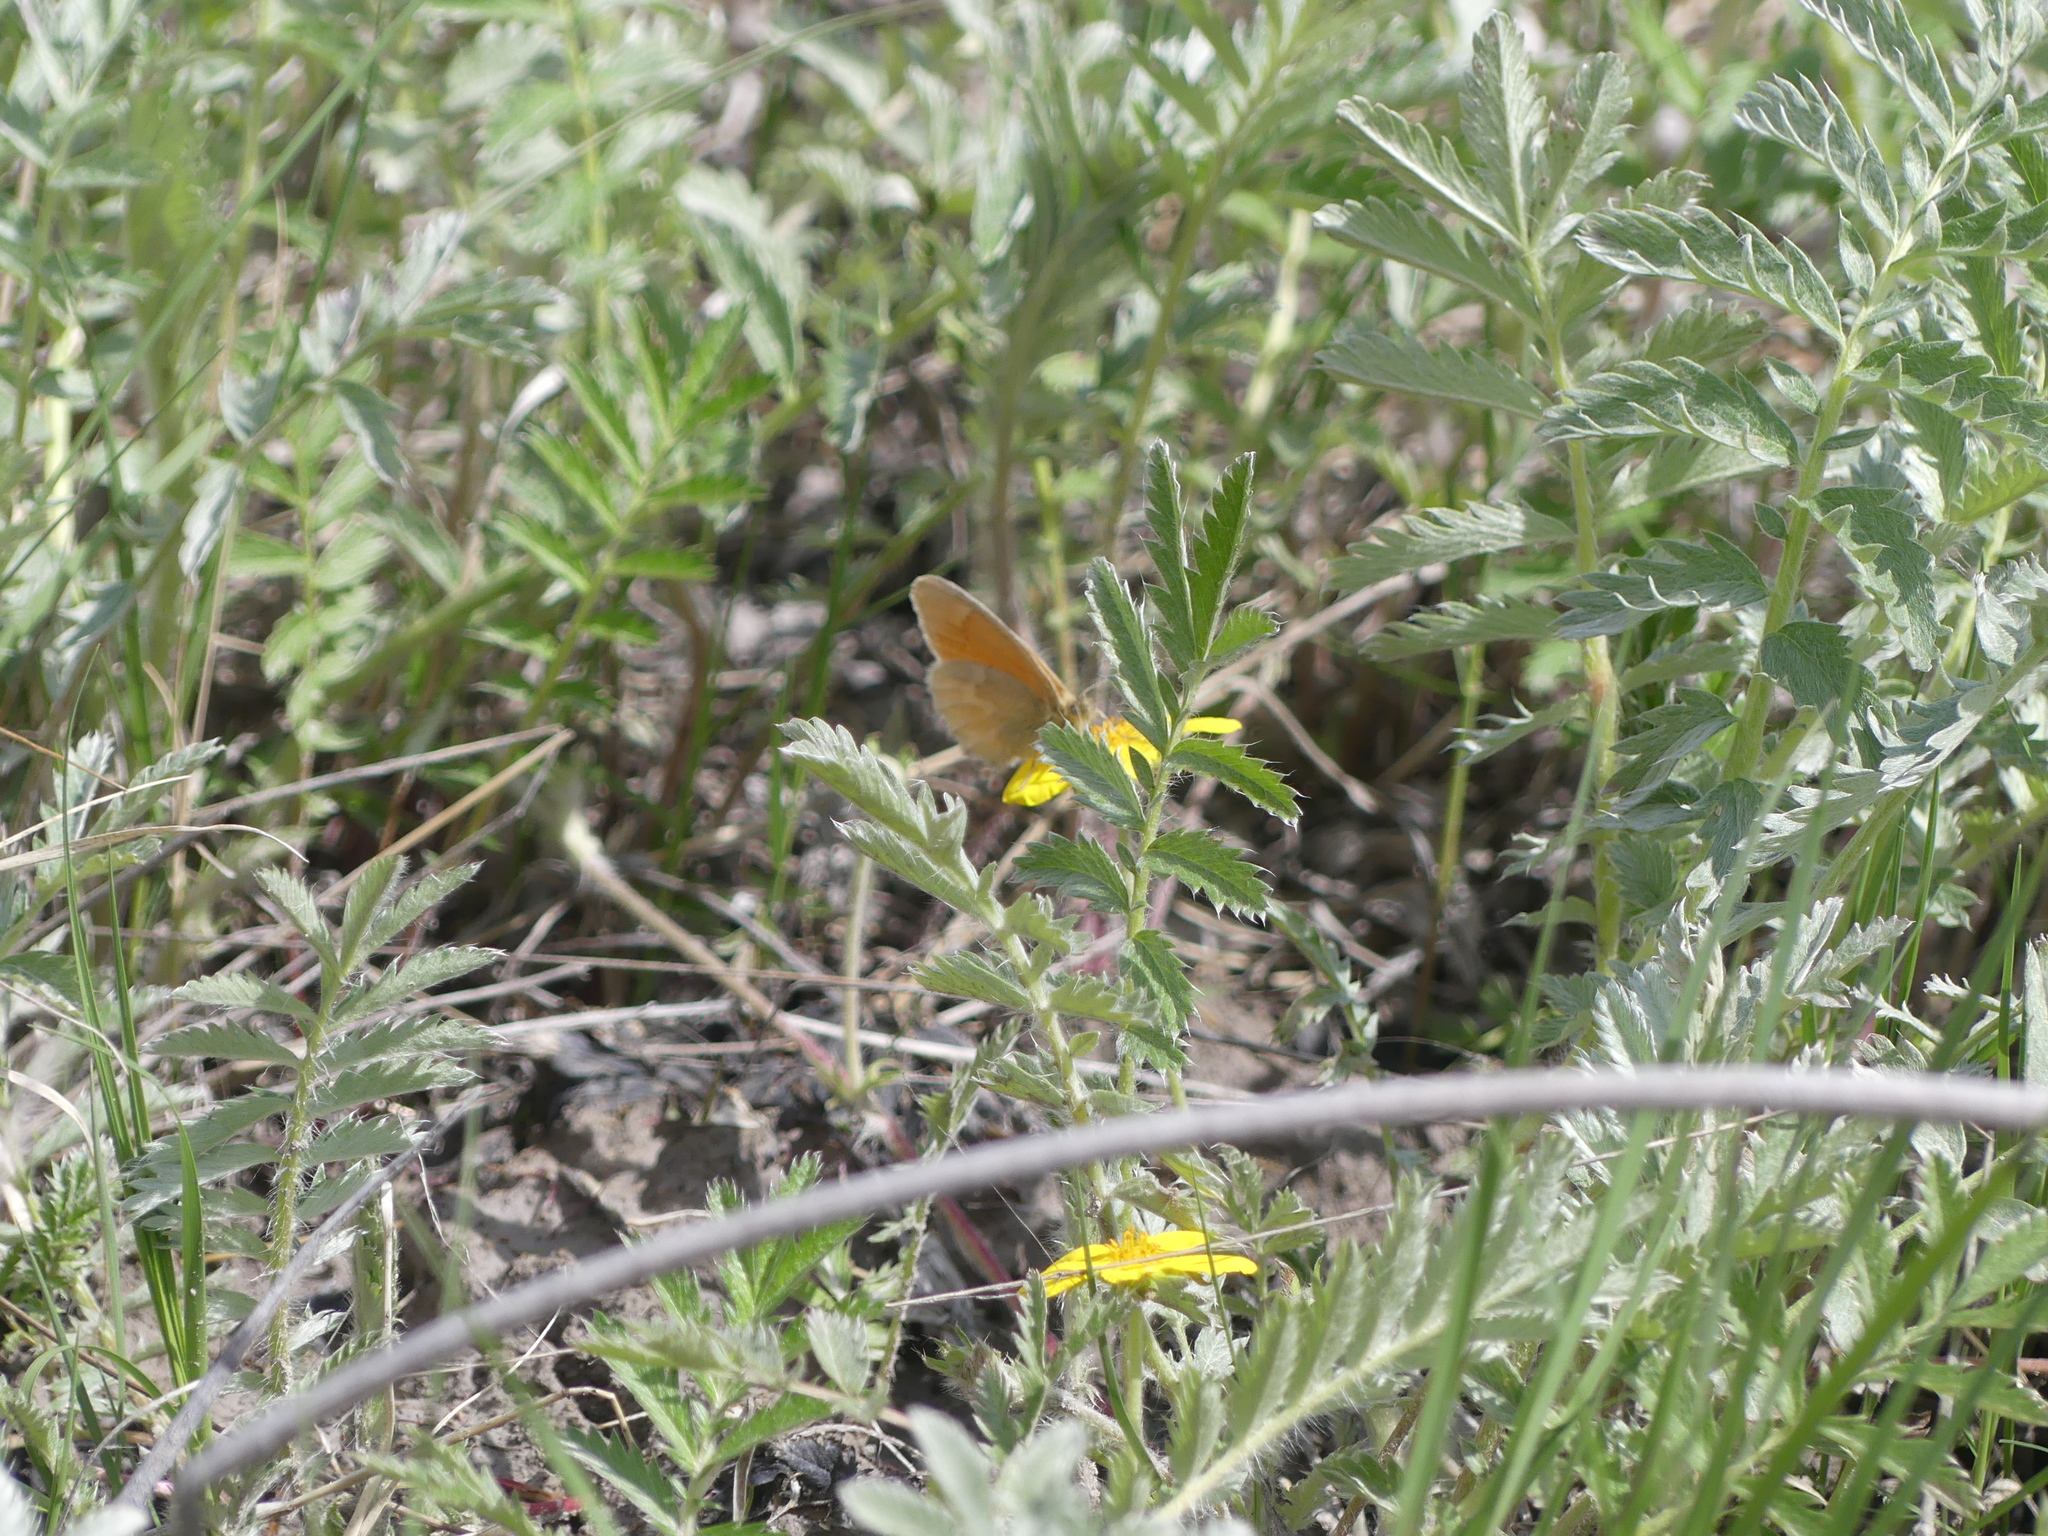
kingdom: Animalia
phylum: Arthropoda
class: Insecta
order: Lepidoptera
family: Nymphalidae
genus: Coenonympha
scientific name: Coenonympha california
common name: Common ringlet
